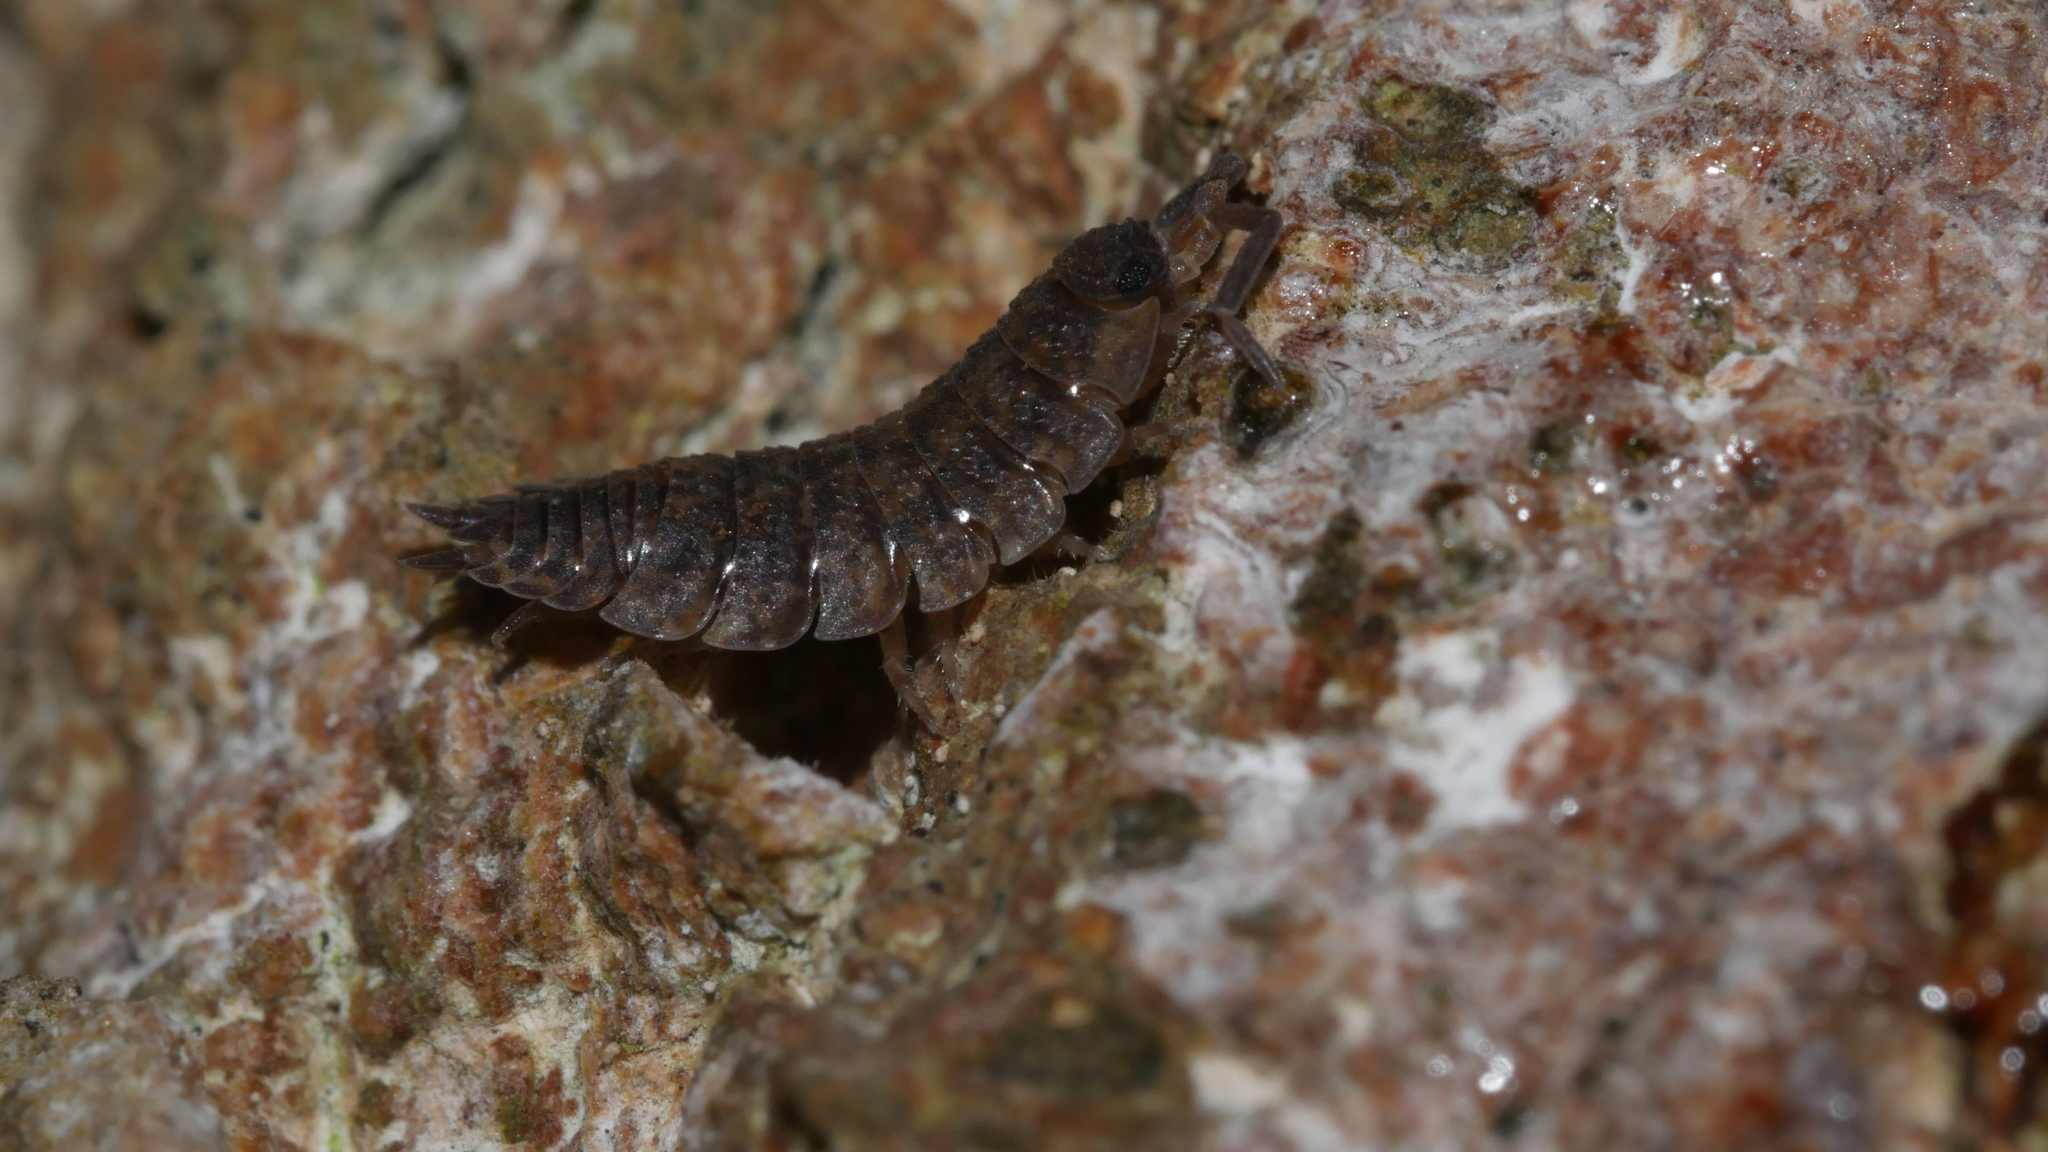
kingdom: Animalia
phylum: Arthropoda
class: Malacostraca
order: Isopoda
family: Porcellionidae
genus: Porcellio
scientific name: Porcellio scaber
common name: Common rough woodlouse
